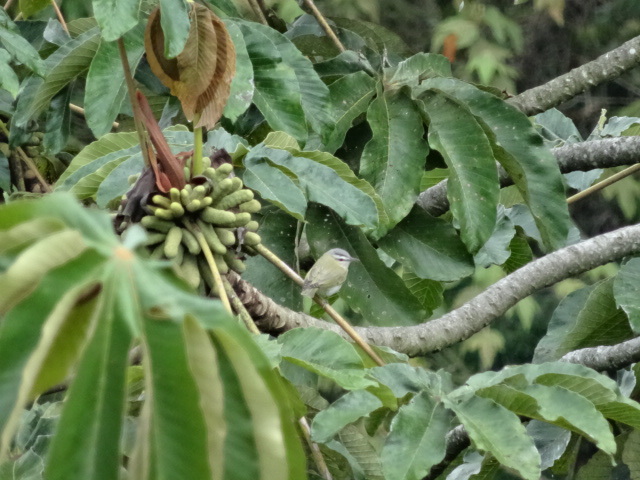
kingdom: Animalia
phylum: Chordata
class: Aves
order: Passeriformes
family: Vireonidae
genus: Vireo
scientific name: Vireo olivaceus
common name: Red-eyed vireo
